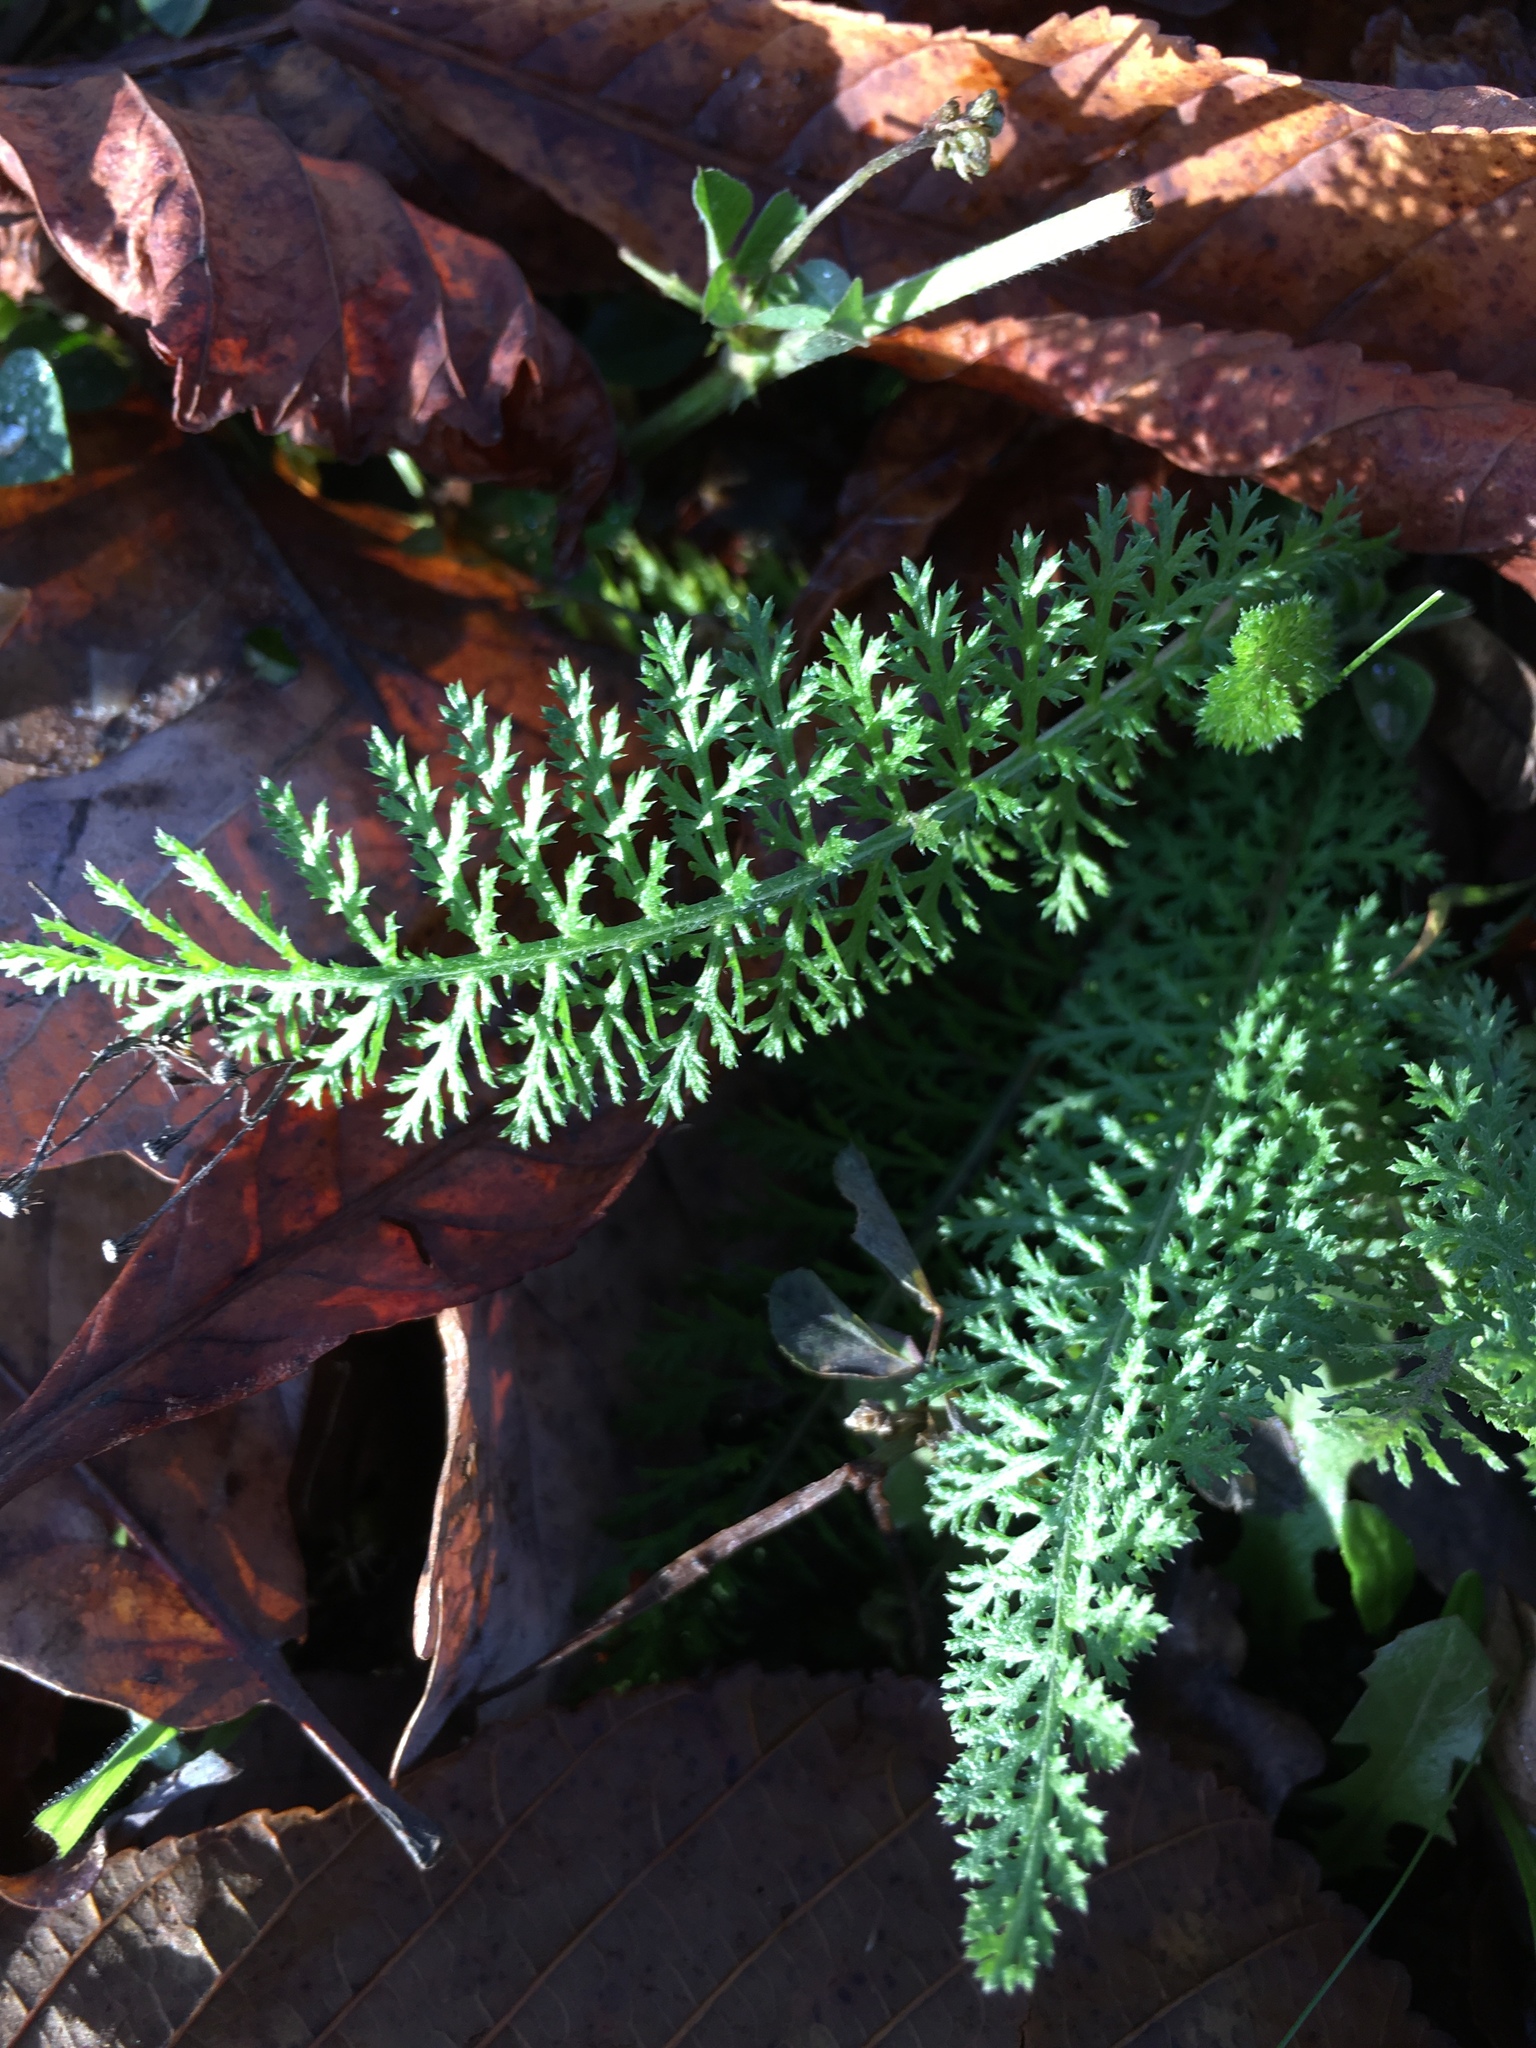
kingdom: Plantae
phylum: Tracheophyta
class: Magnoliopsida
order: Asterales
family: Asteraceae
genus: Achillea
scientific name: Achillea millefolium
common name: Yarrow
